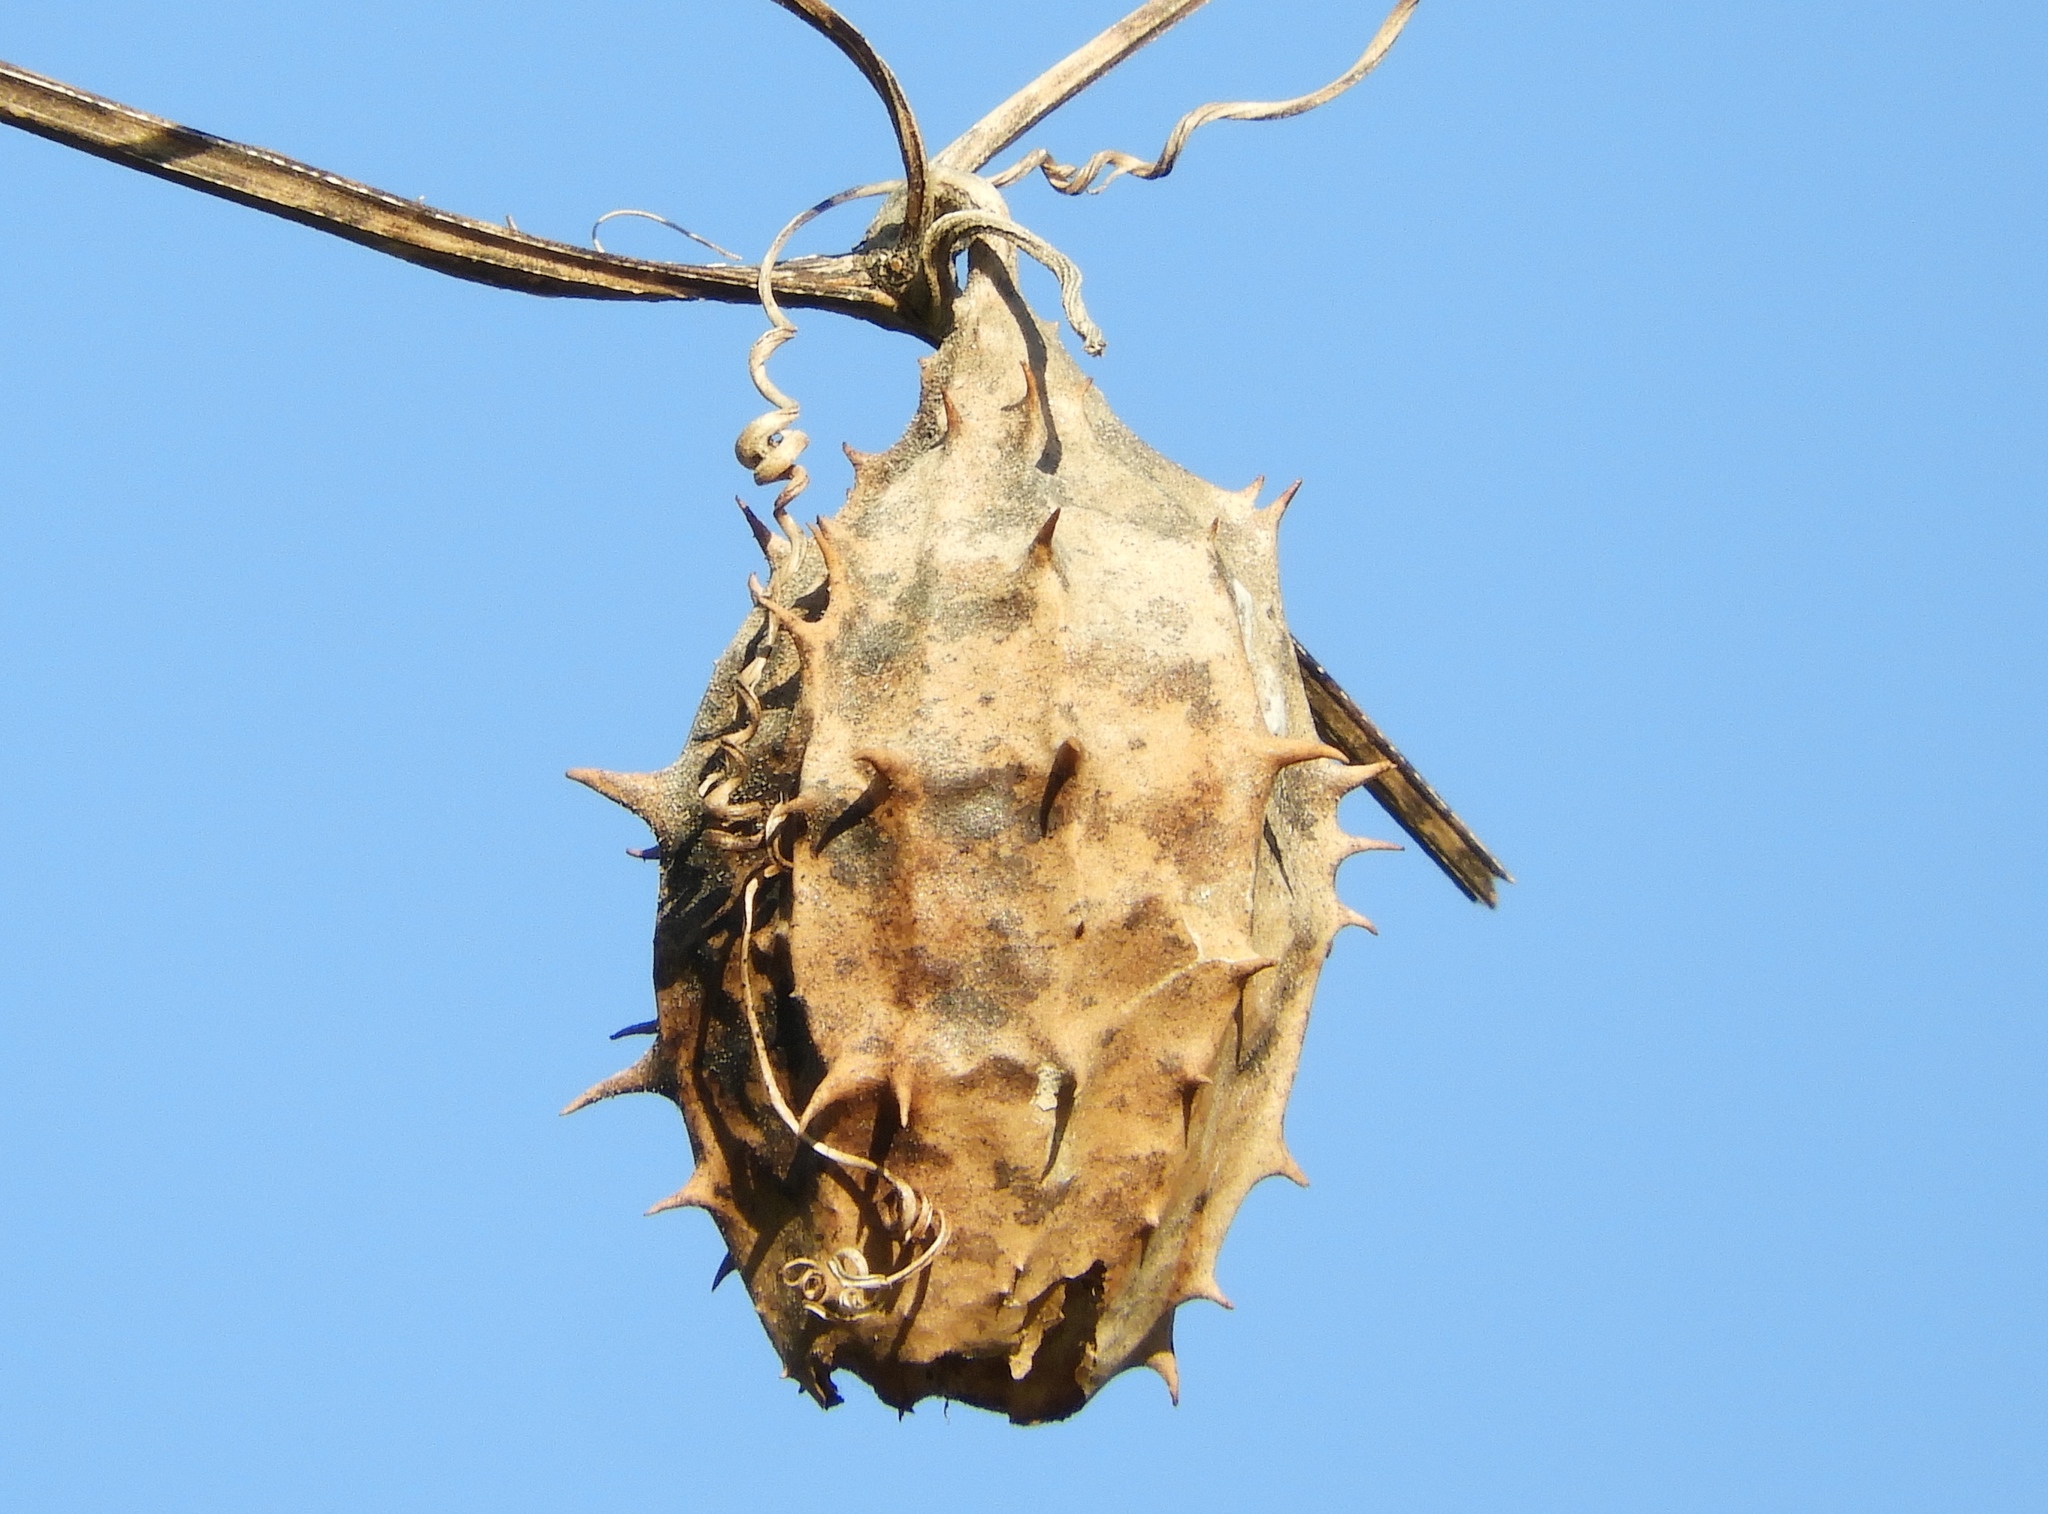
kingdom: Plantae
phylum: Tracheophyta
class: Magnoliopsida
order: Cucurbitales
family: Cucurbitaceae
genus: Luffa
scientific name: Luffa operculata
